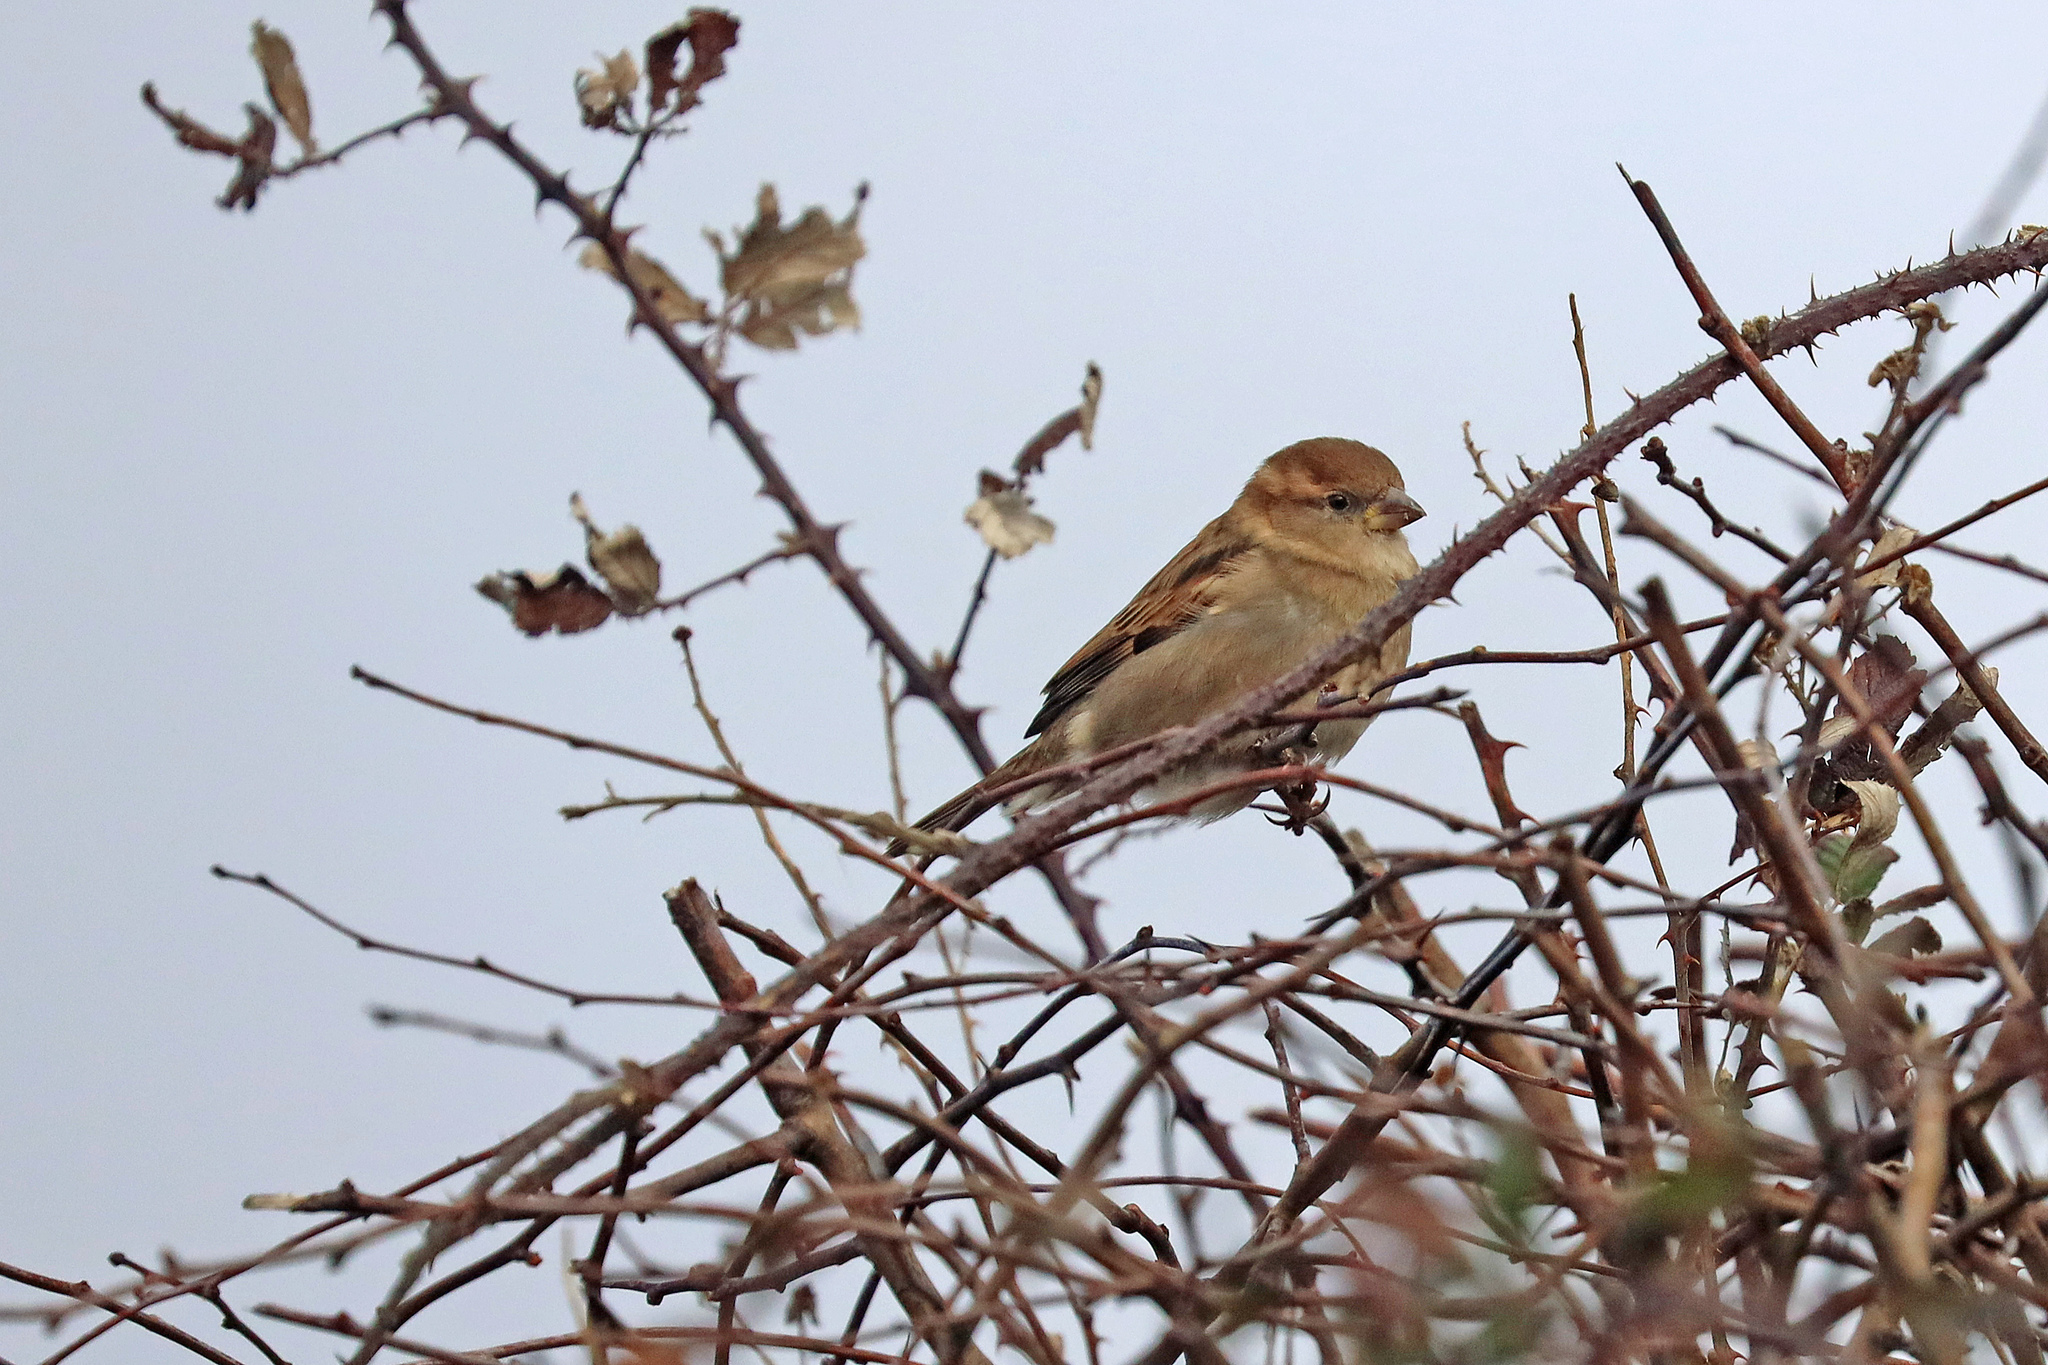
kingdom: Animalia
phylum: Chordata
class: Aves
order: Passeriformes
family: Passeridae
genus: Passer
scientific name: Passer domesticus
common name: House sparrow
